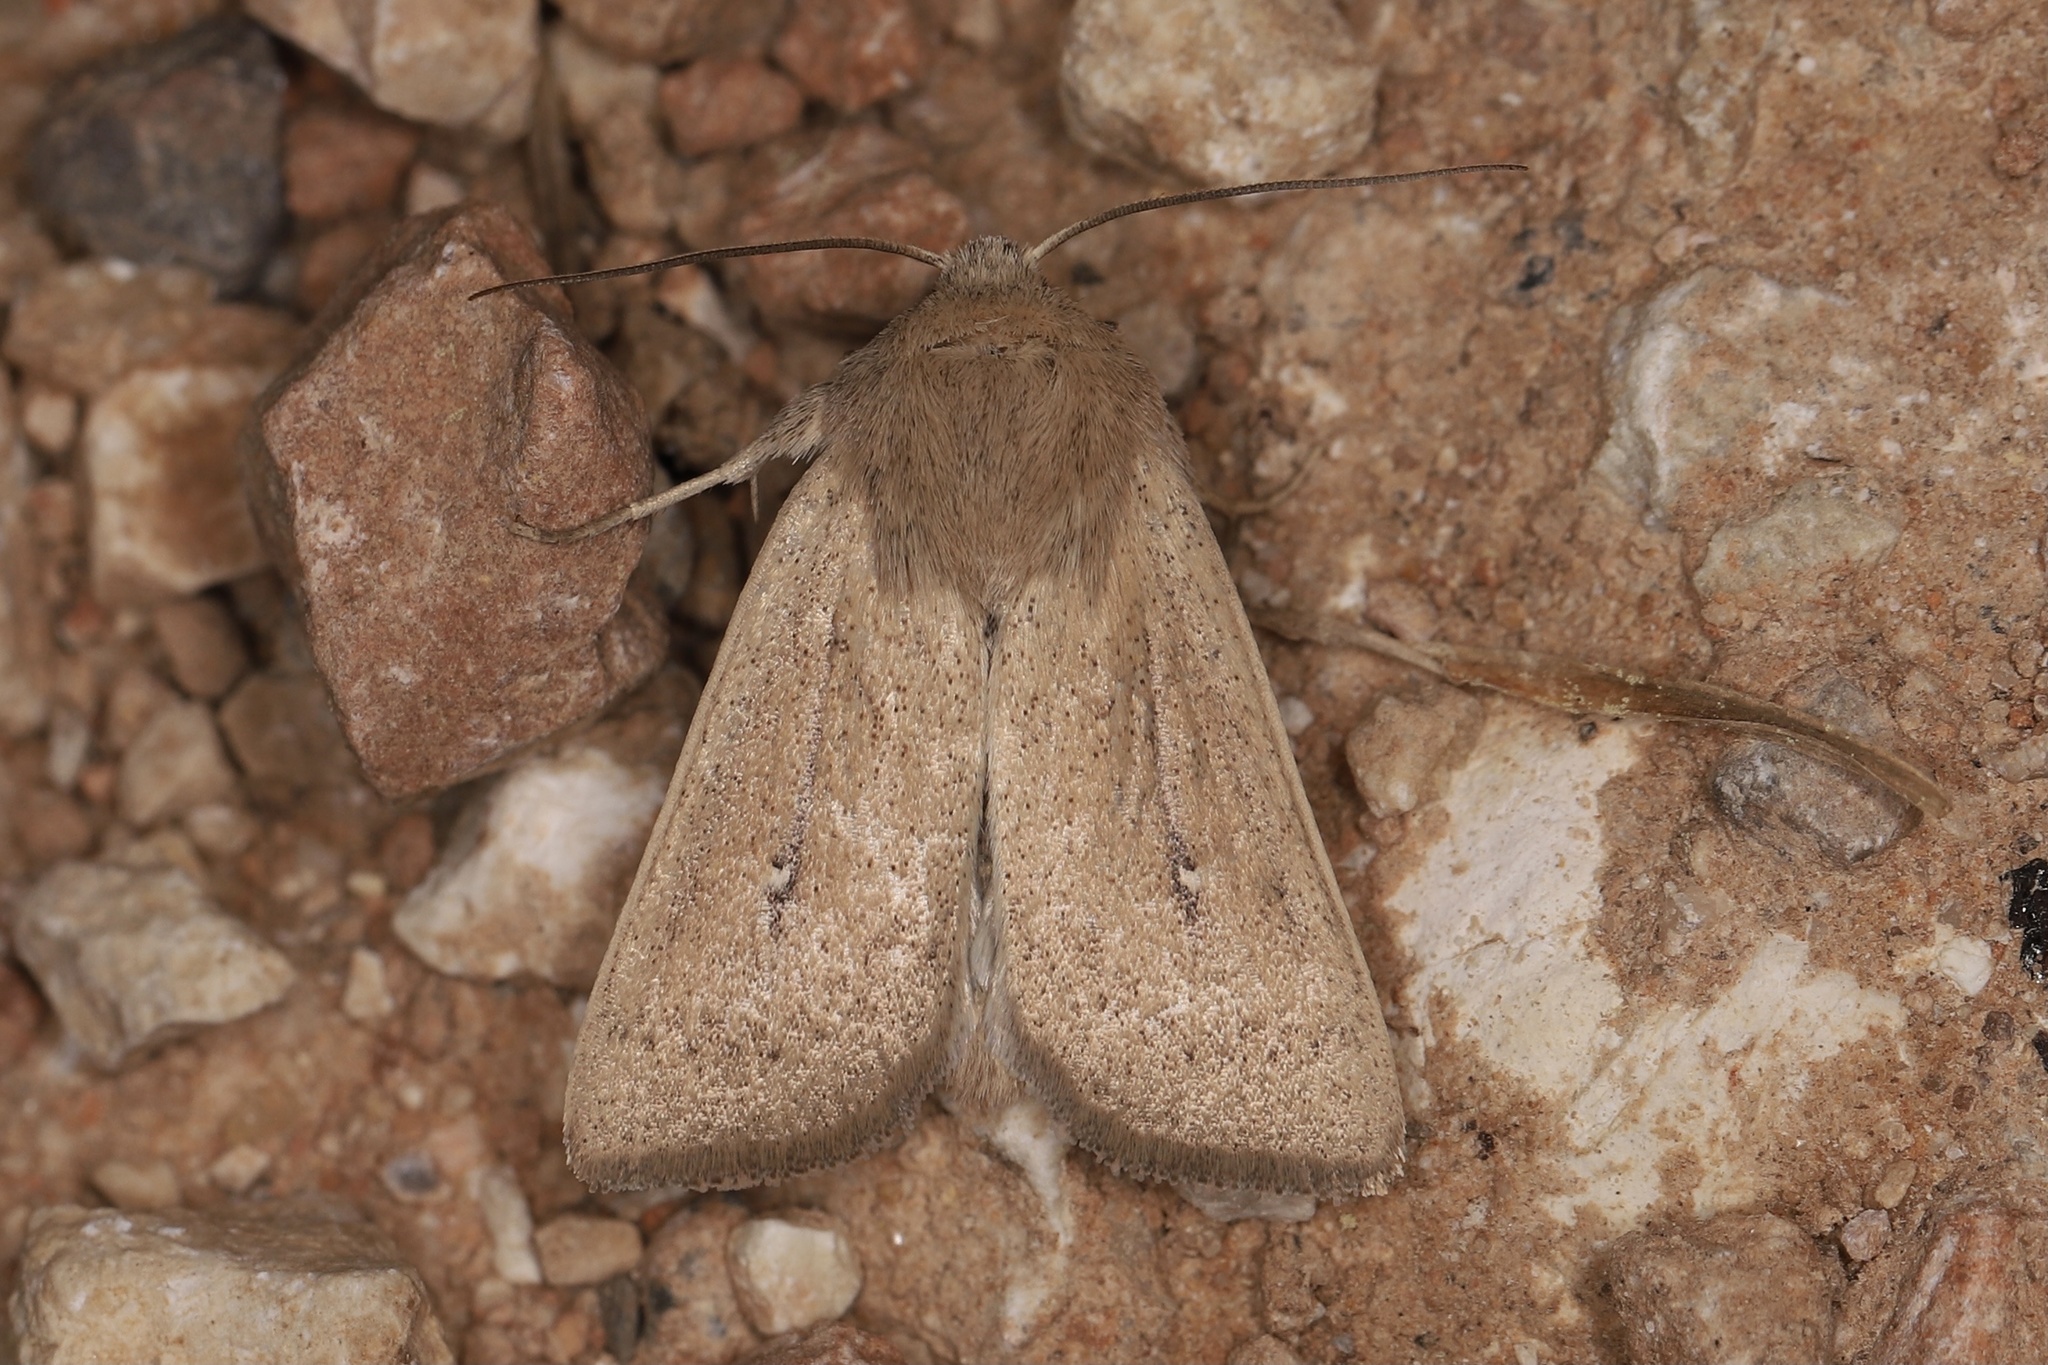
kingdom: Animalia
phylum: Arthropoda
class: Insecta
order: Lepidoptera
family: Noctuidae
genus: Mythimna
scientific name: Mythimna sicula
